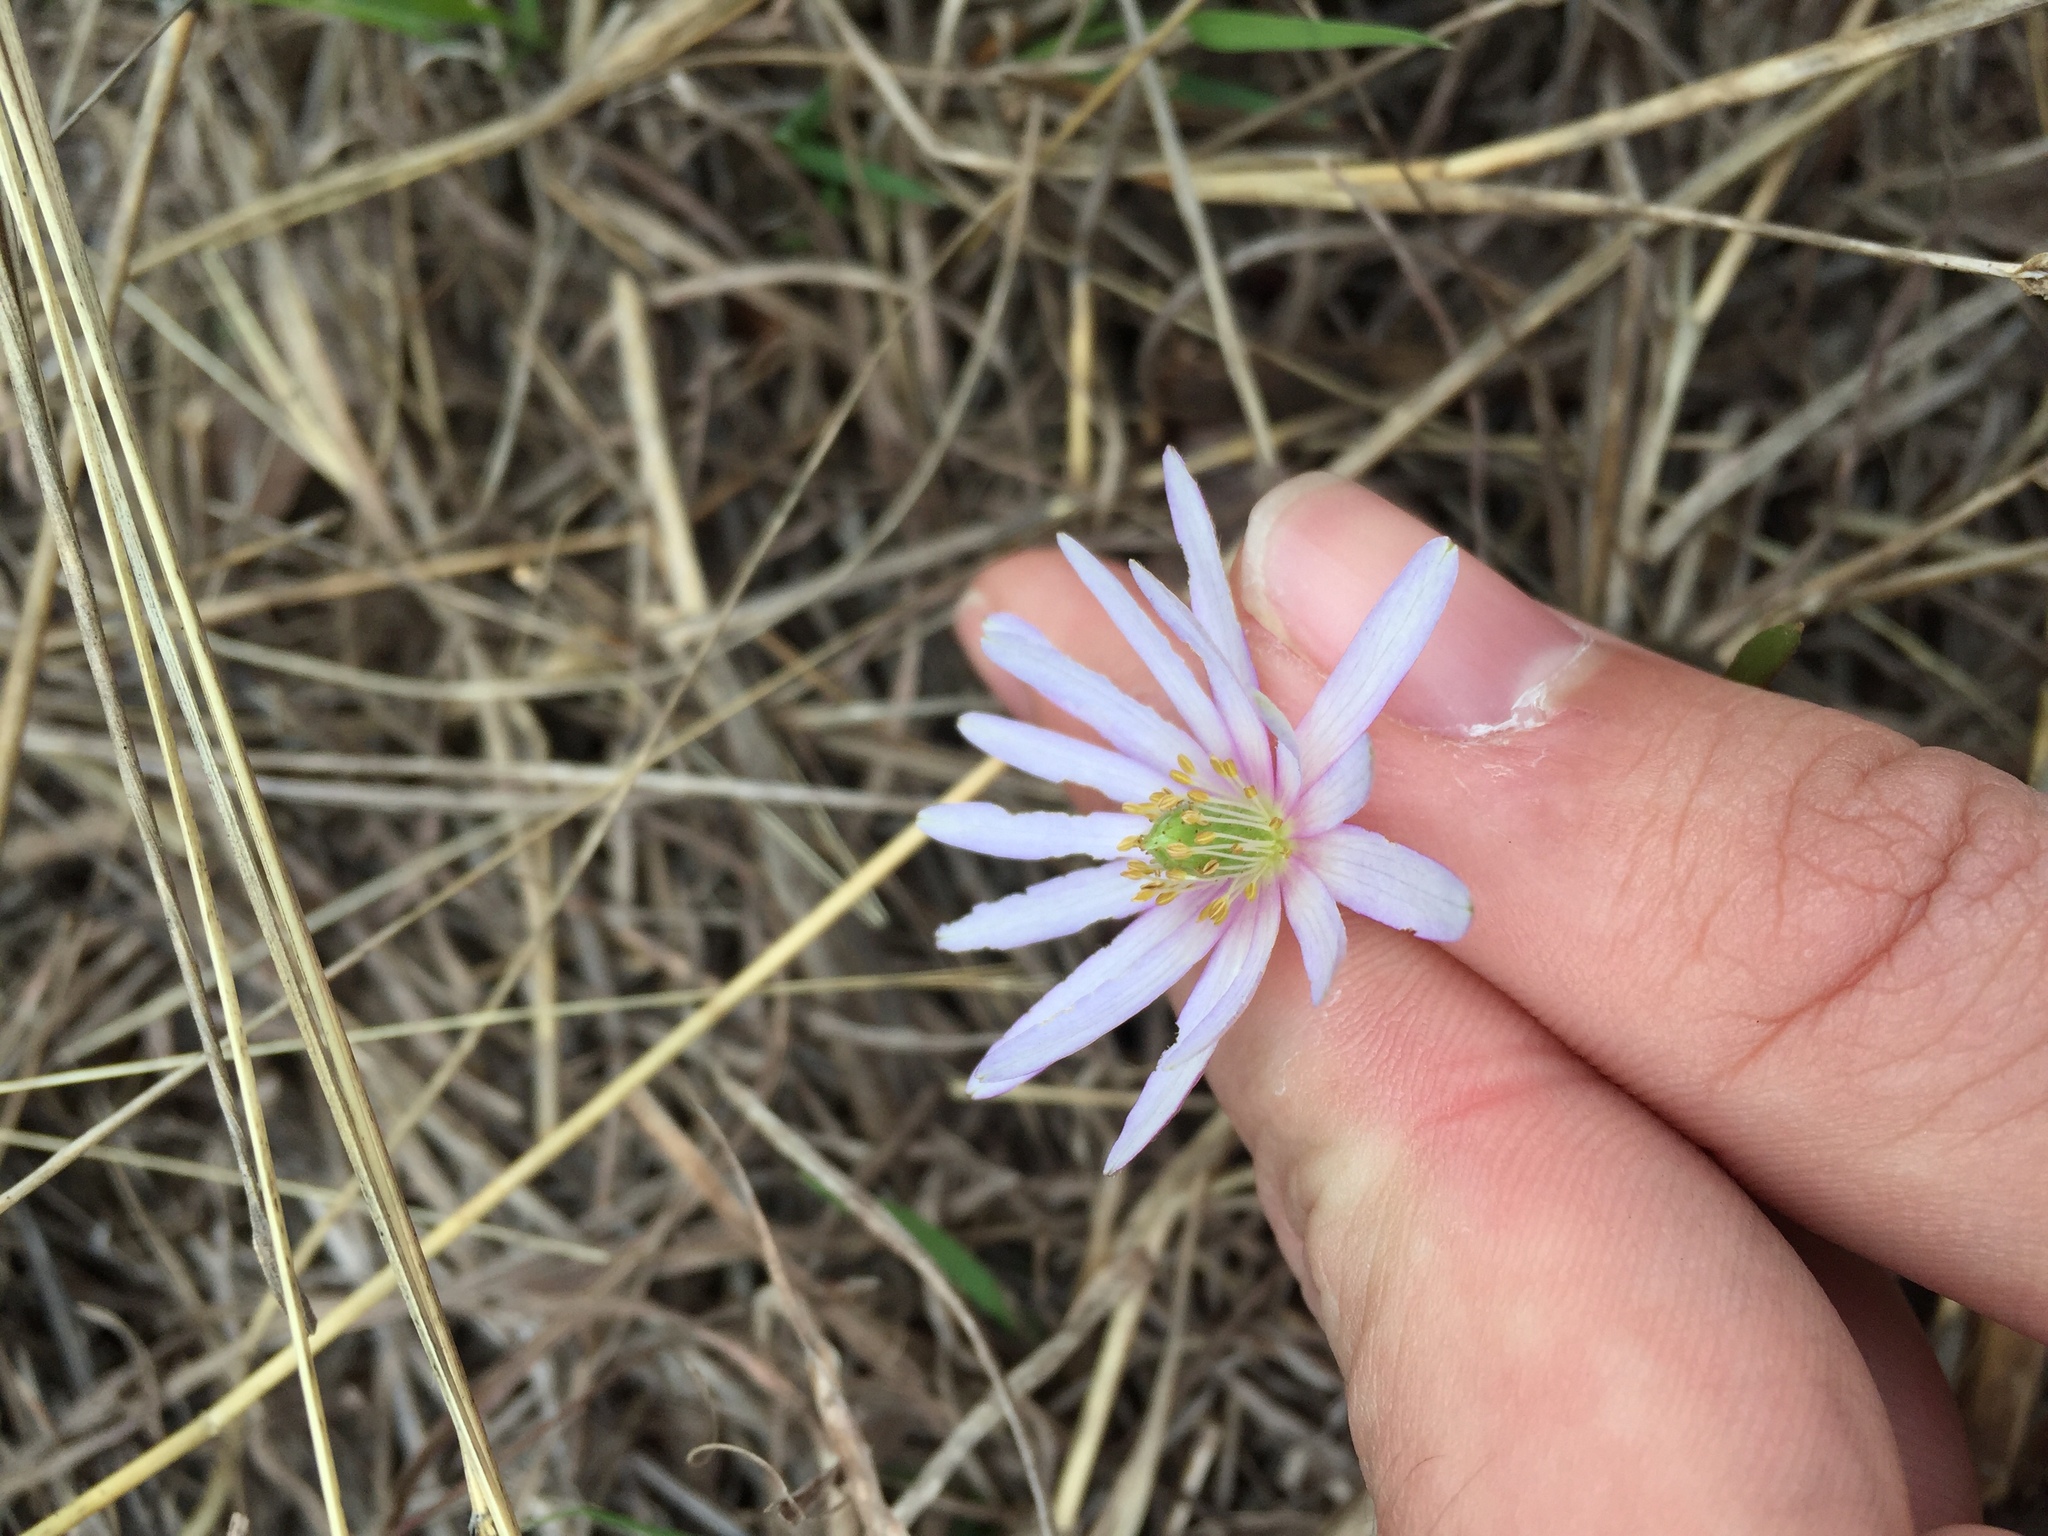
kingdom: Plantae
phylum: Tracheophyta
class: Magnoliopsida
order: Ranunculales
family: Ranunculaceae
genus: Anemone
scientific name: Anemone berlandieri
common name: Ten-petal anemone
